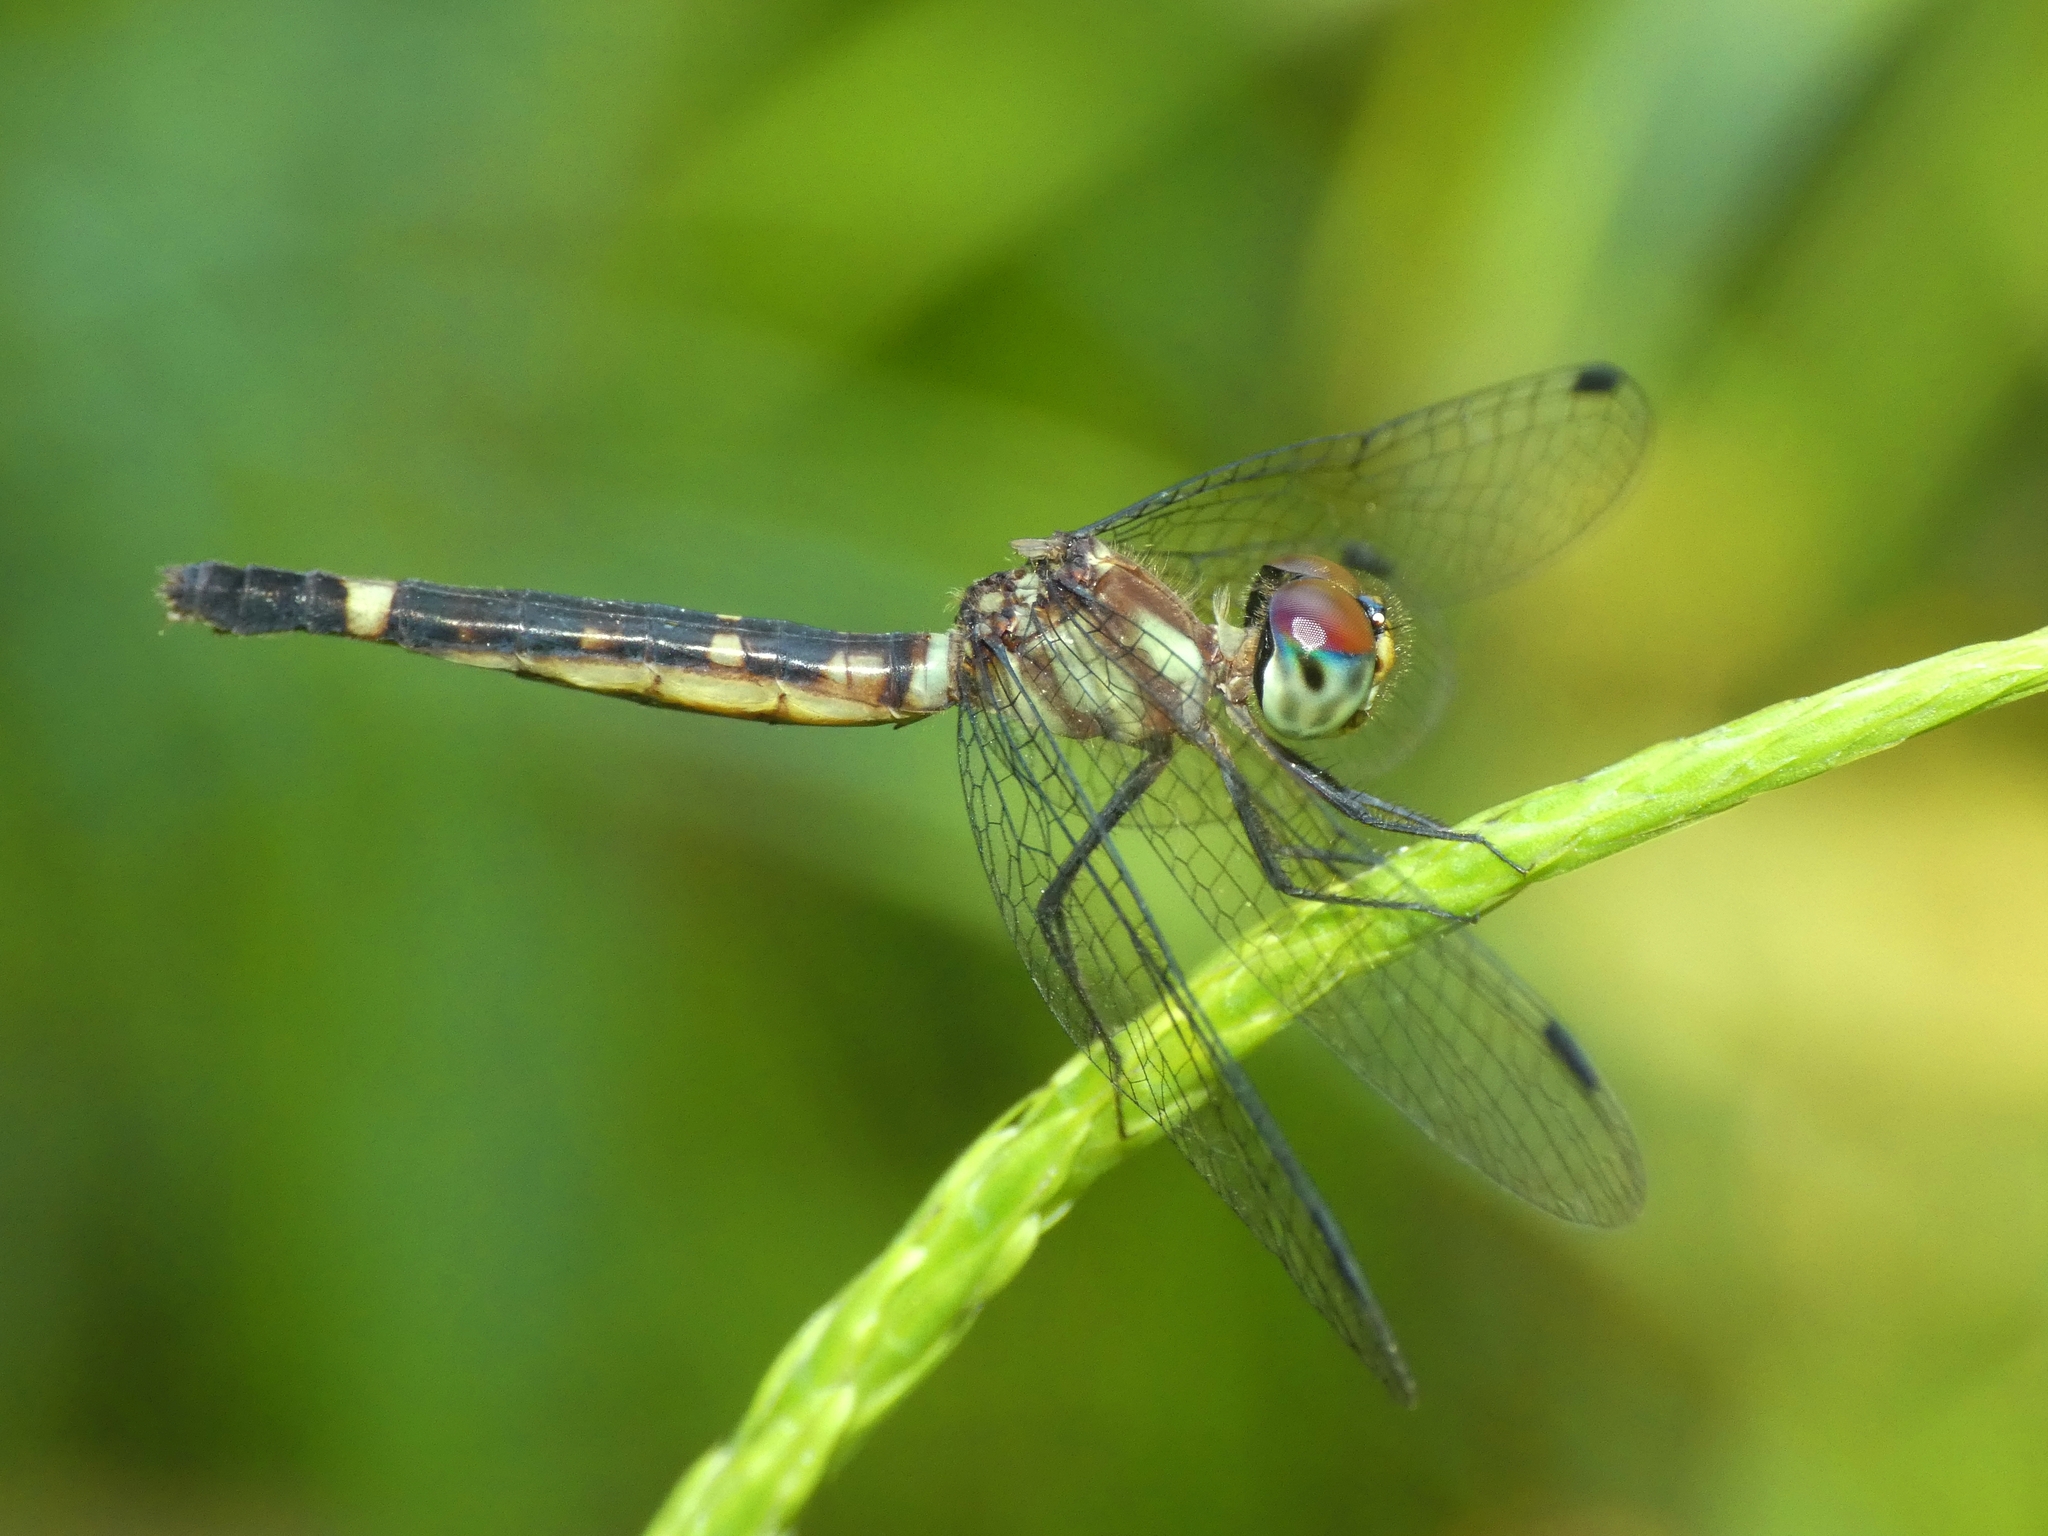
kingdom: Animalia
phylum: Arthropoda
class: Insecta
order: Odonata
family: Libellulidae
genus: Tetrathemis
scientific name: Tetrathemis irregularis
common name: Elf
